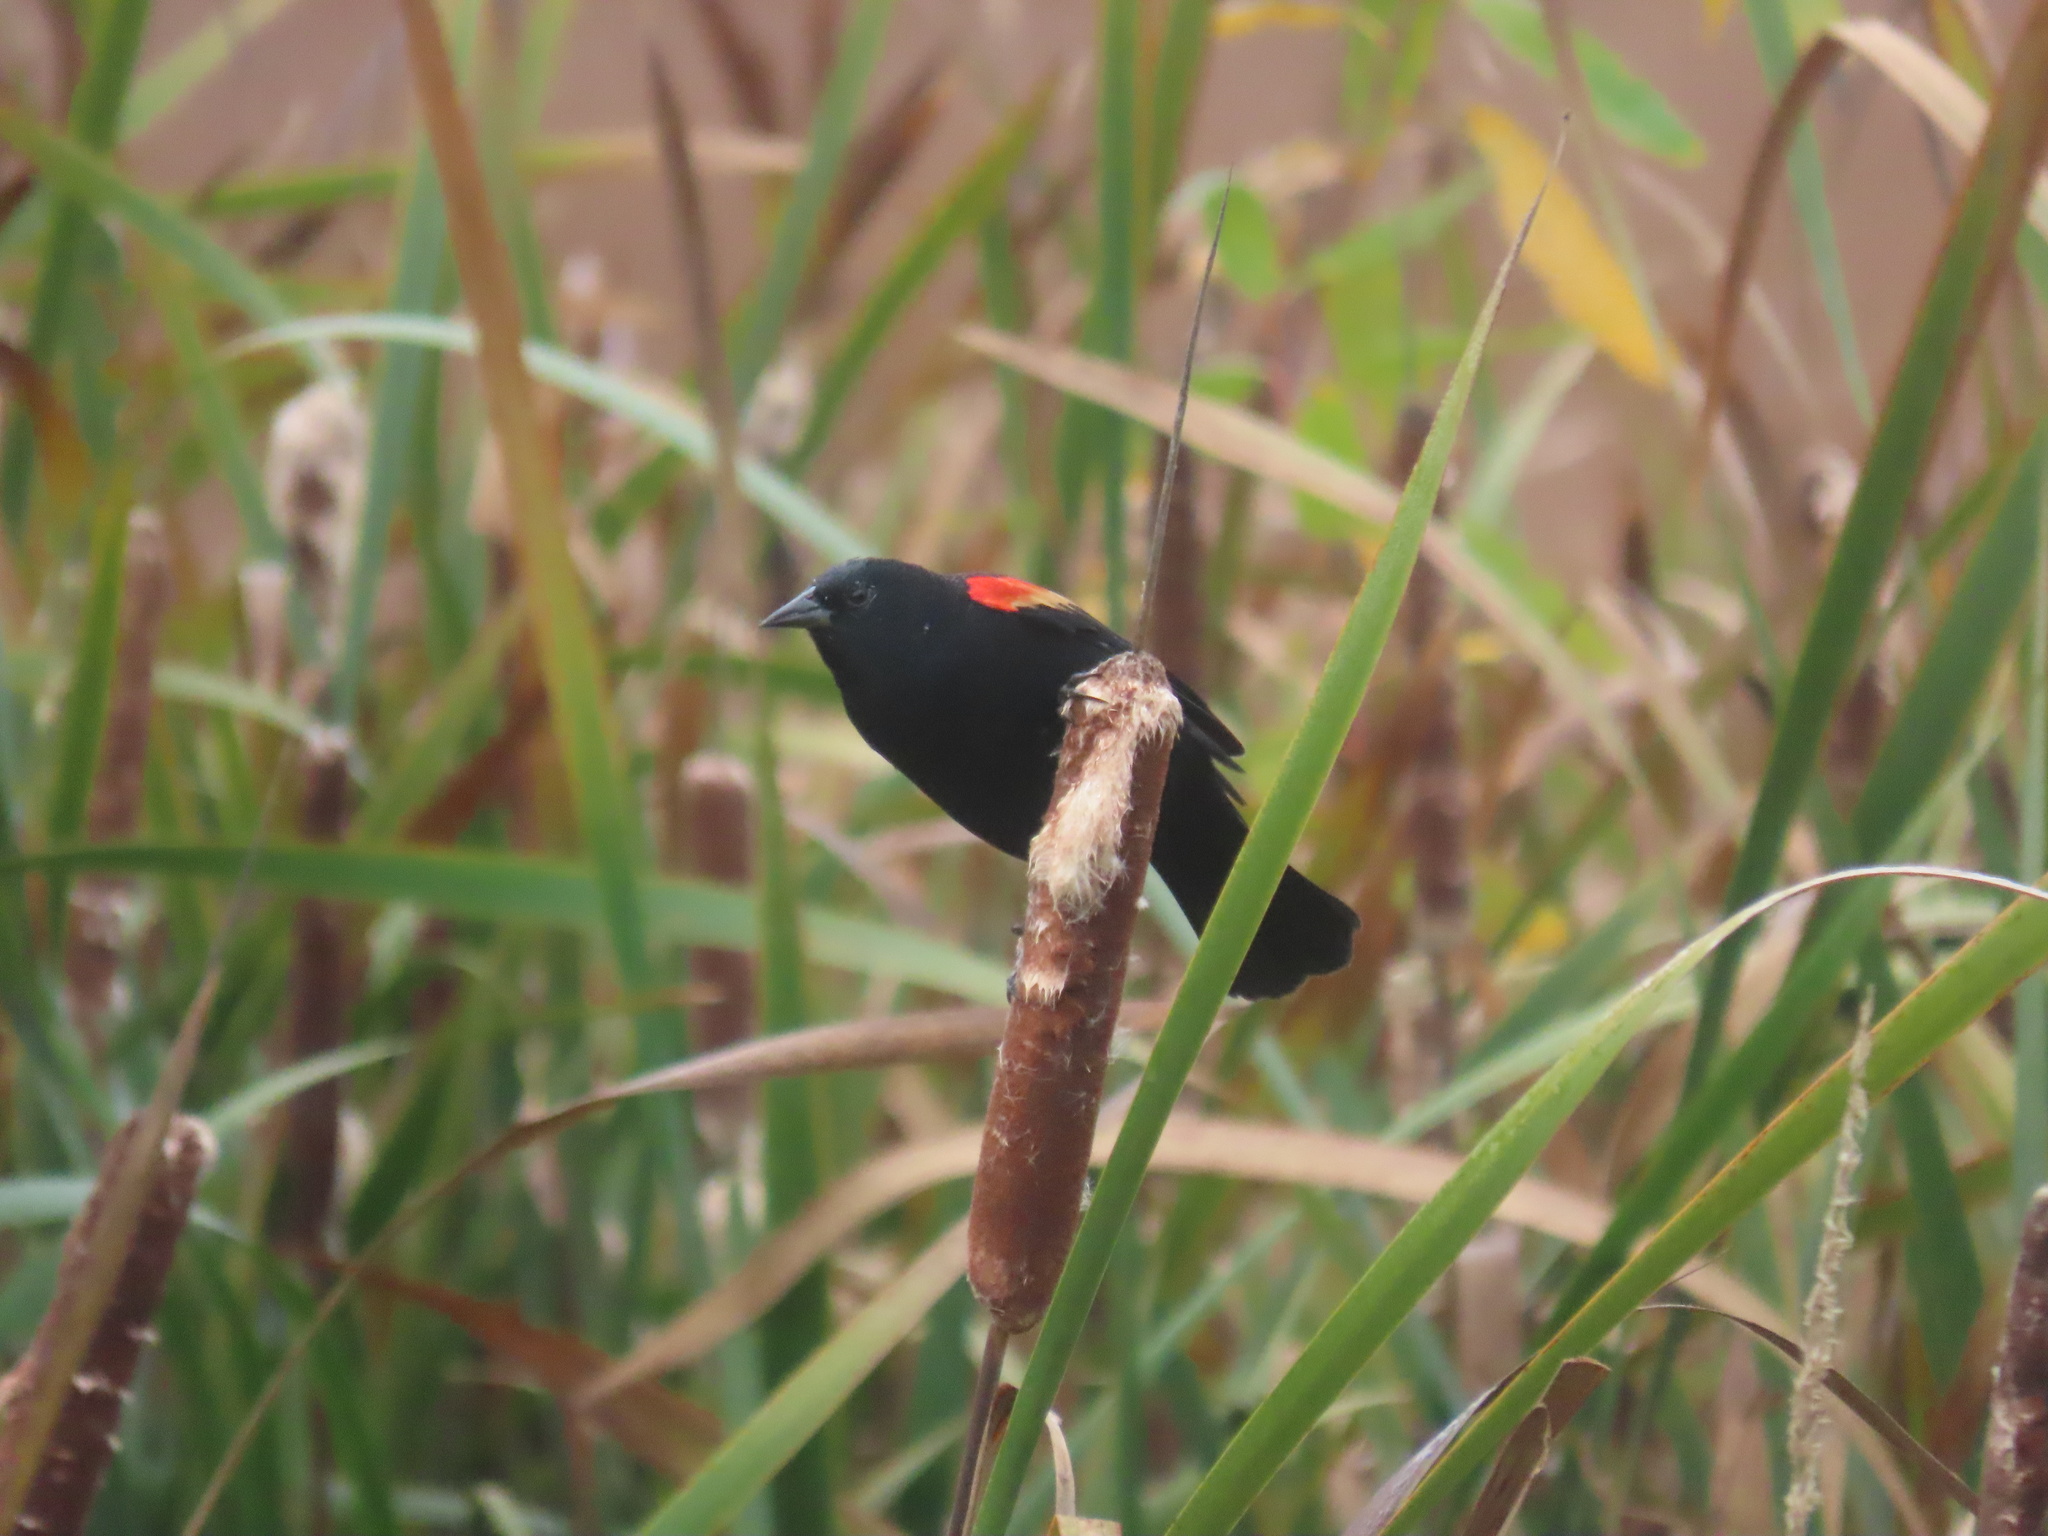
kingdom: Animalia
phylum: Chordata
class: Aves
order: Passeriformes
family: Icteridae
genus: Agelaius
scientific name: Agelaius phoeniceus
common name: Red-winged blackbird
